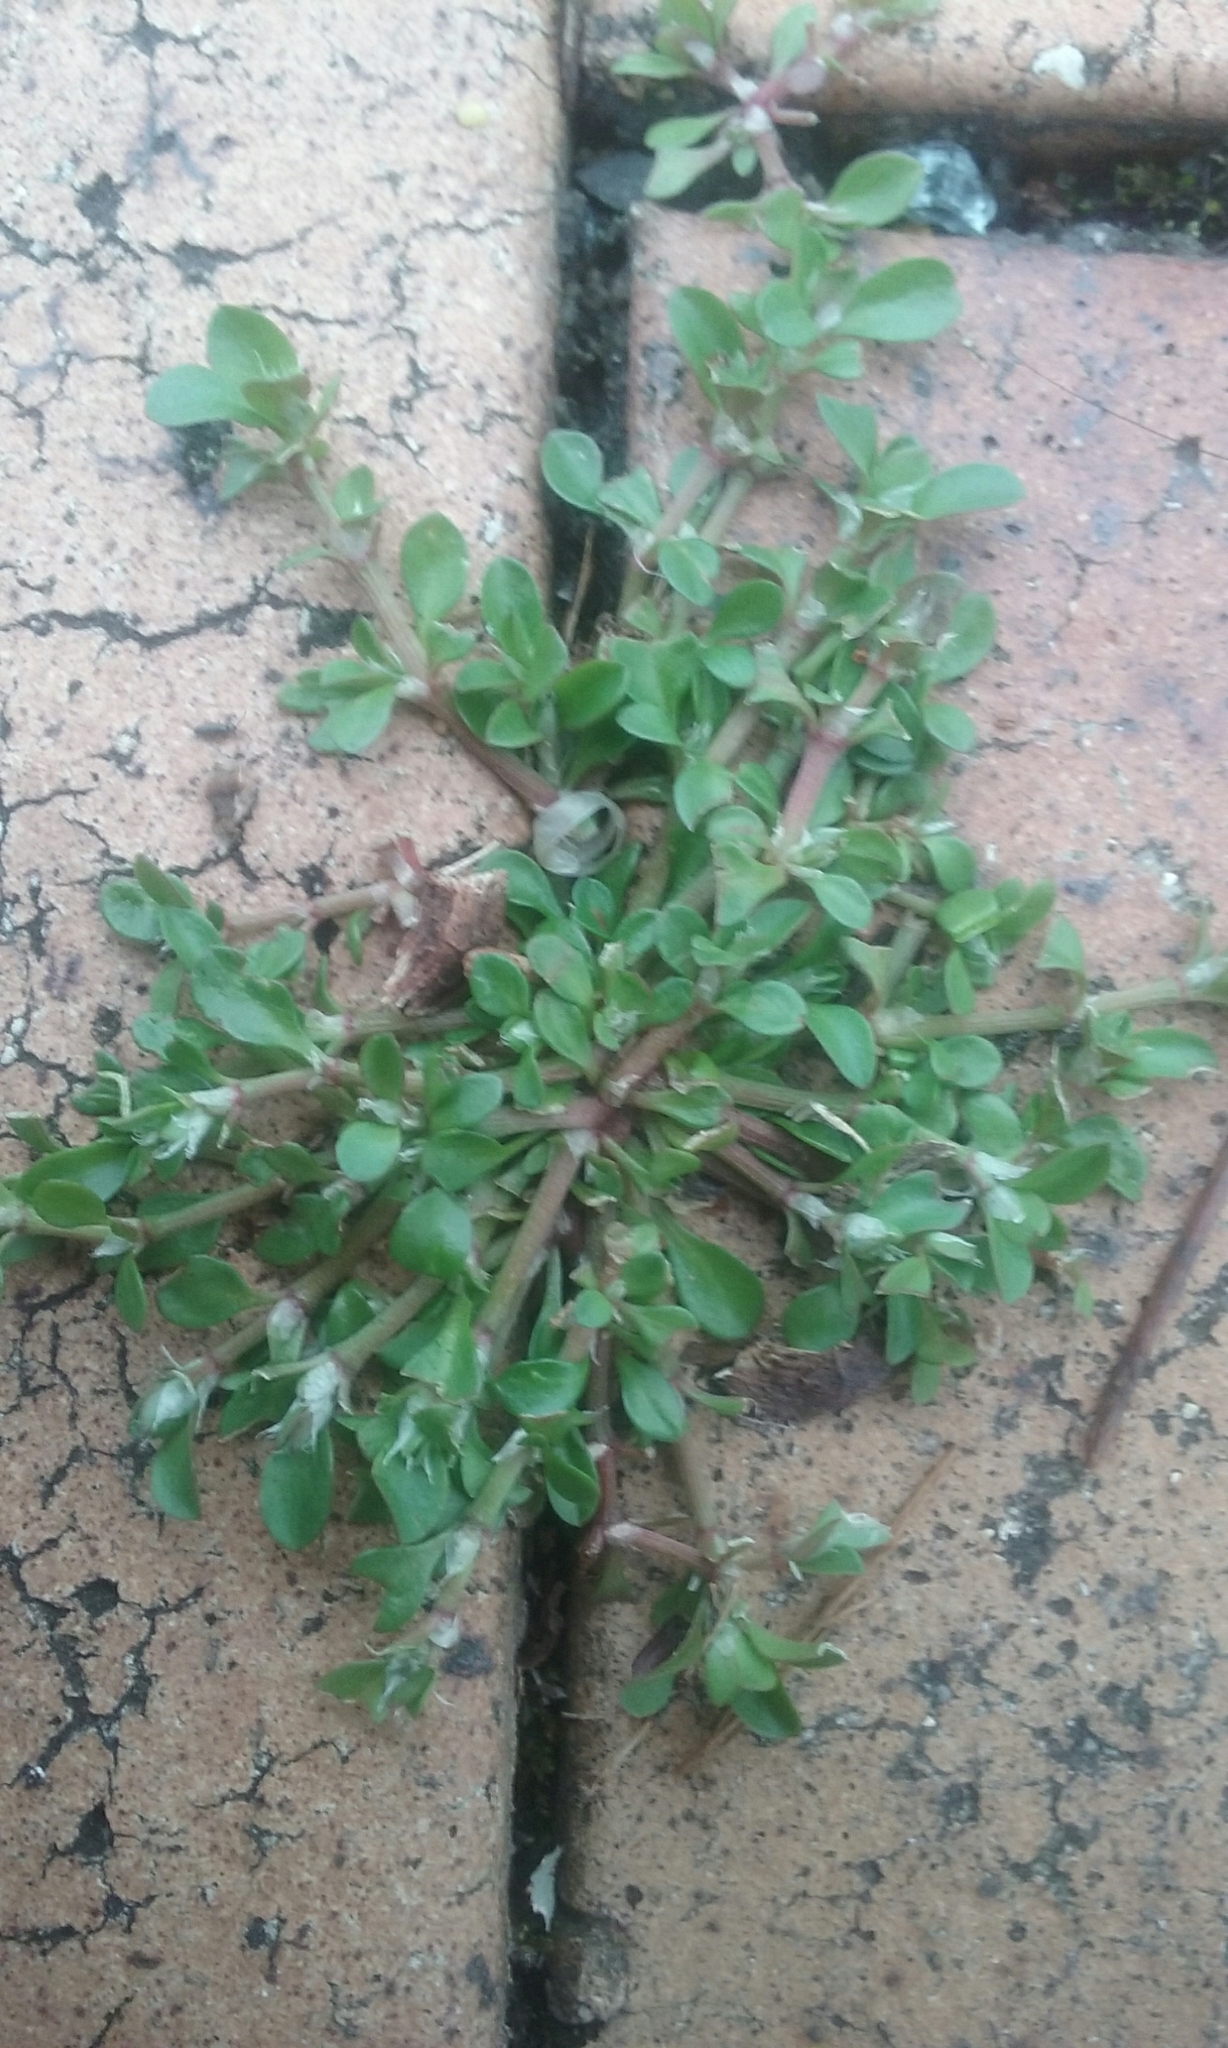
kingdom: Plantae
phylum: Tracheophyta
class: Magnoliopsida
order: Caryophyllales
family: Caryophyllaceae
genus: Polycarpon
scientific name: Polycarpon tetraphyllum
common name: Four-leaved all-seed
